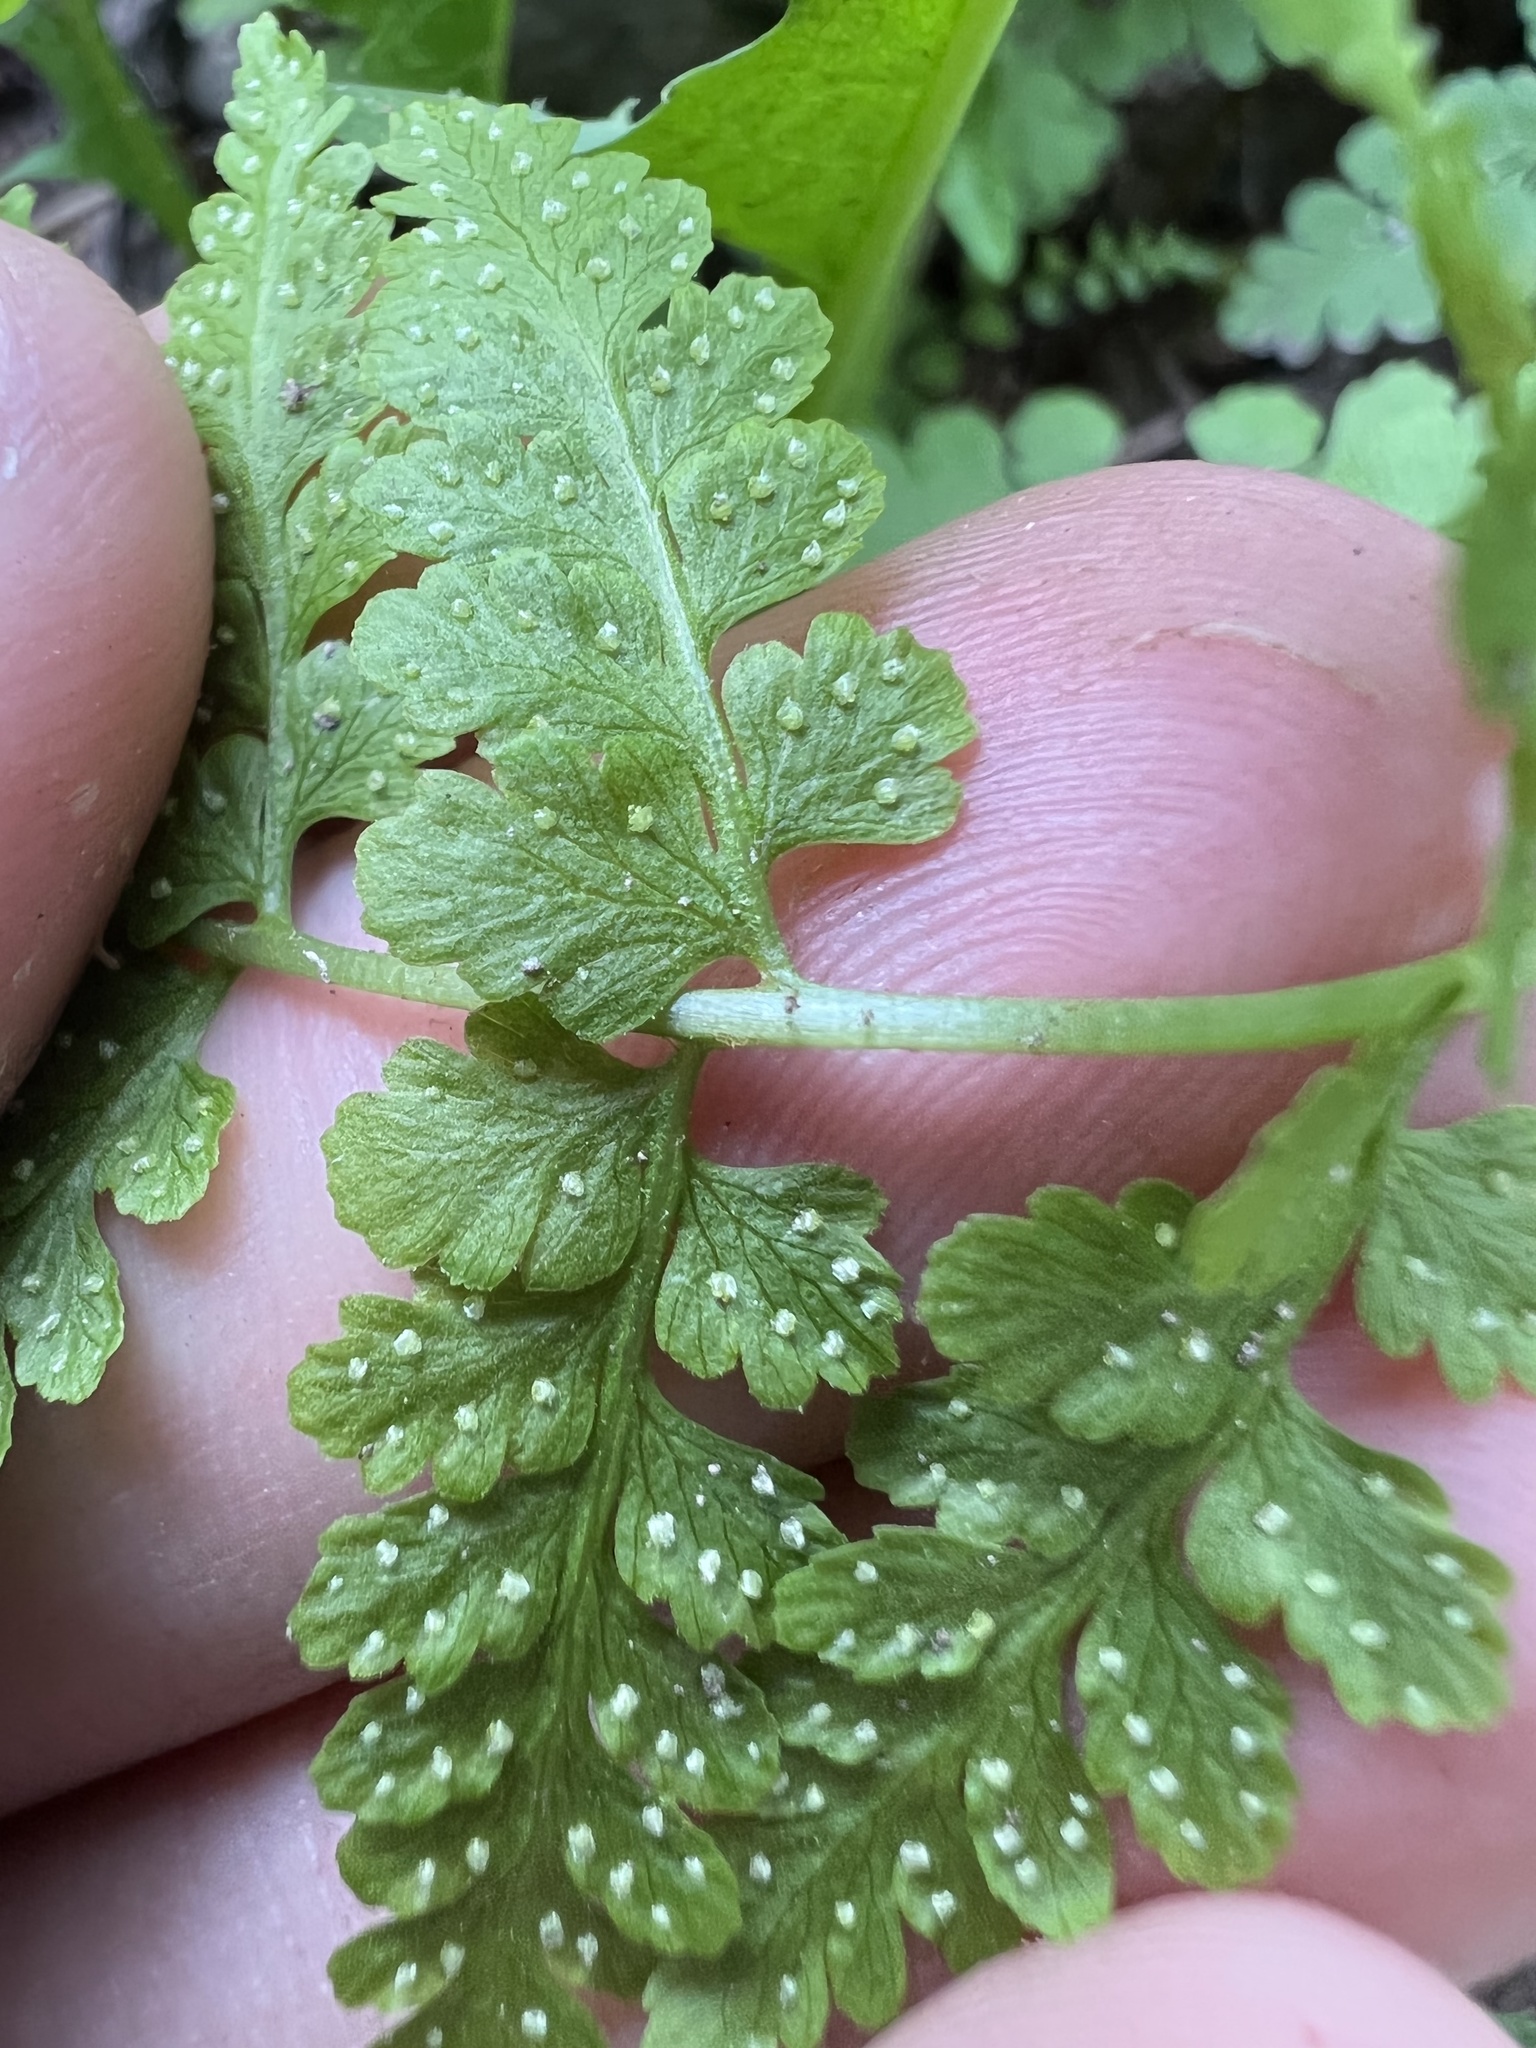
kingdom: Plantae
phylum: Tracheophyta
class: Polypodiopsida
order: Polypodiales
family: Cystopteridaceae
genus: Cystopteris
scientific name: Cystopteris fragilis
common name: Brittle bladder fern
